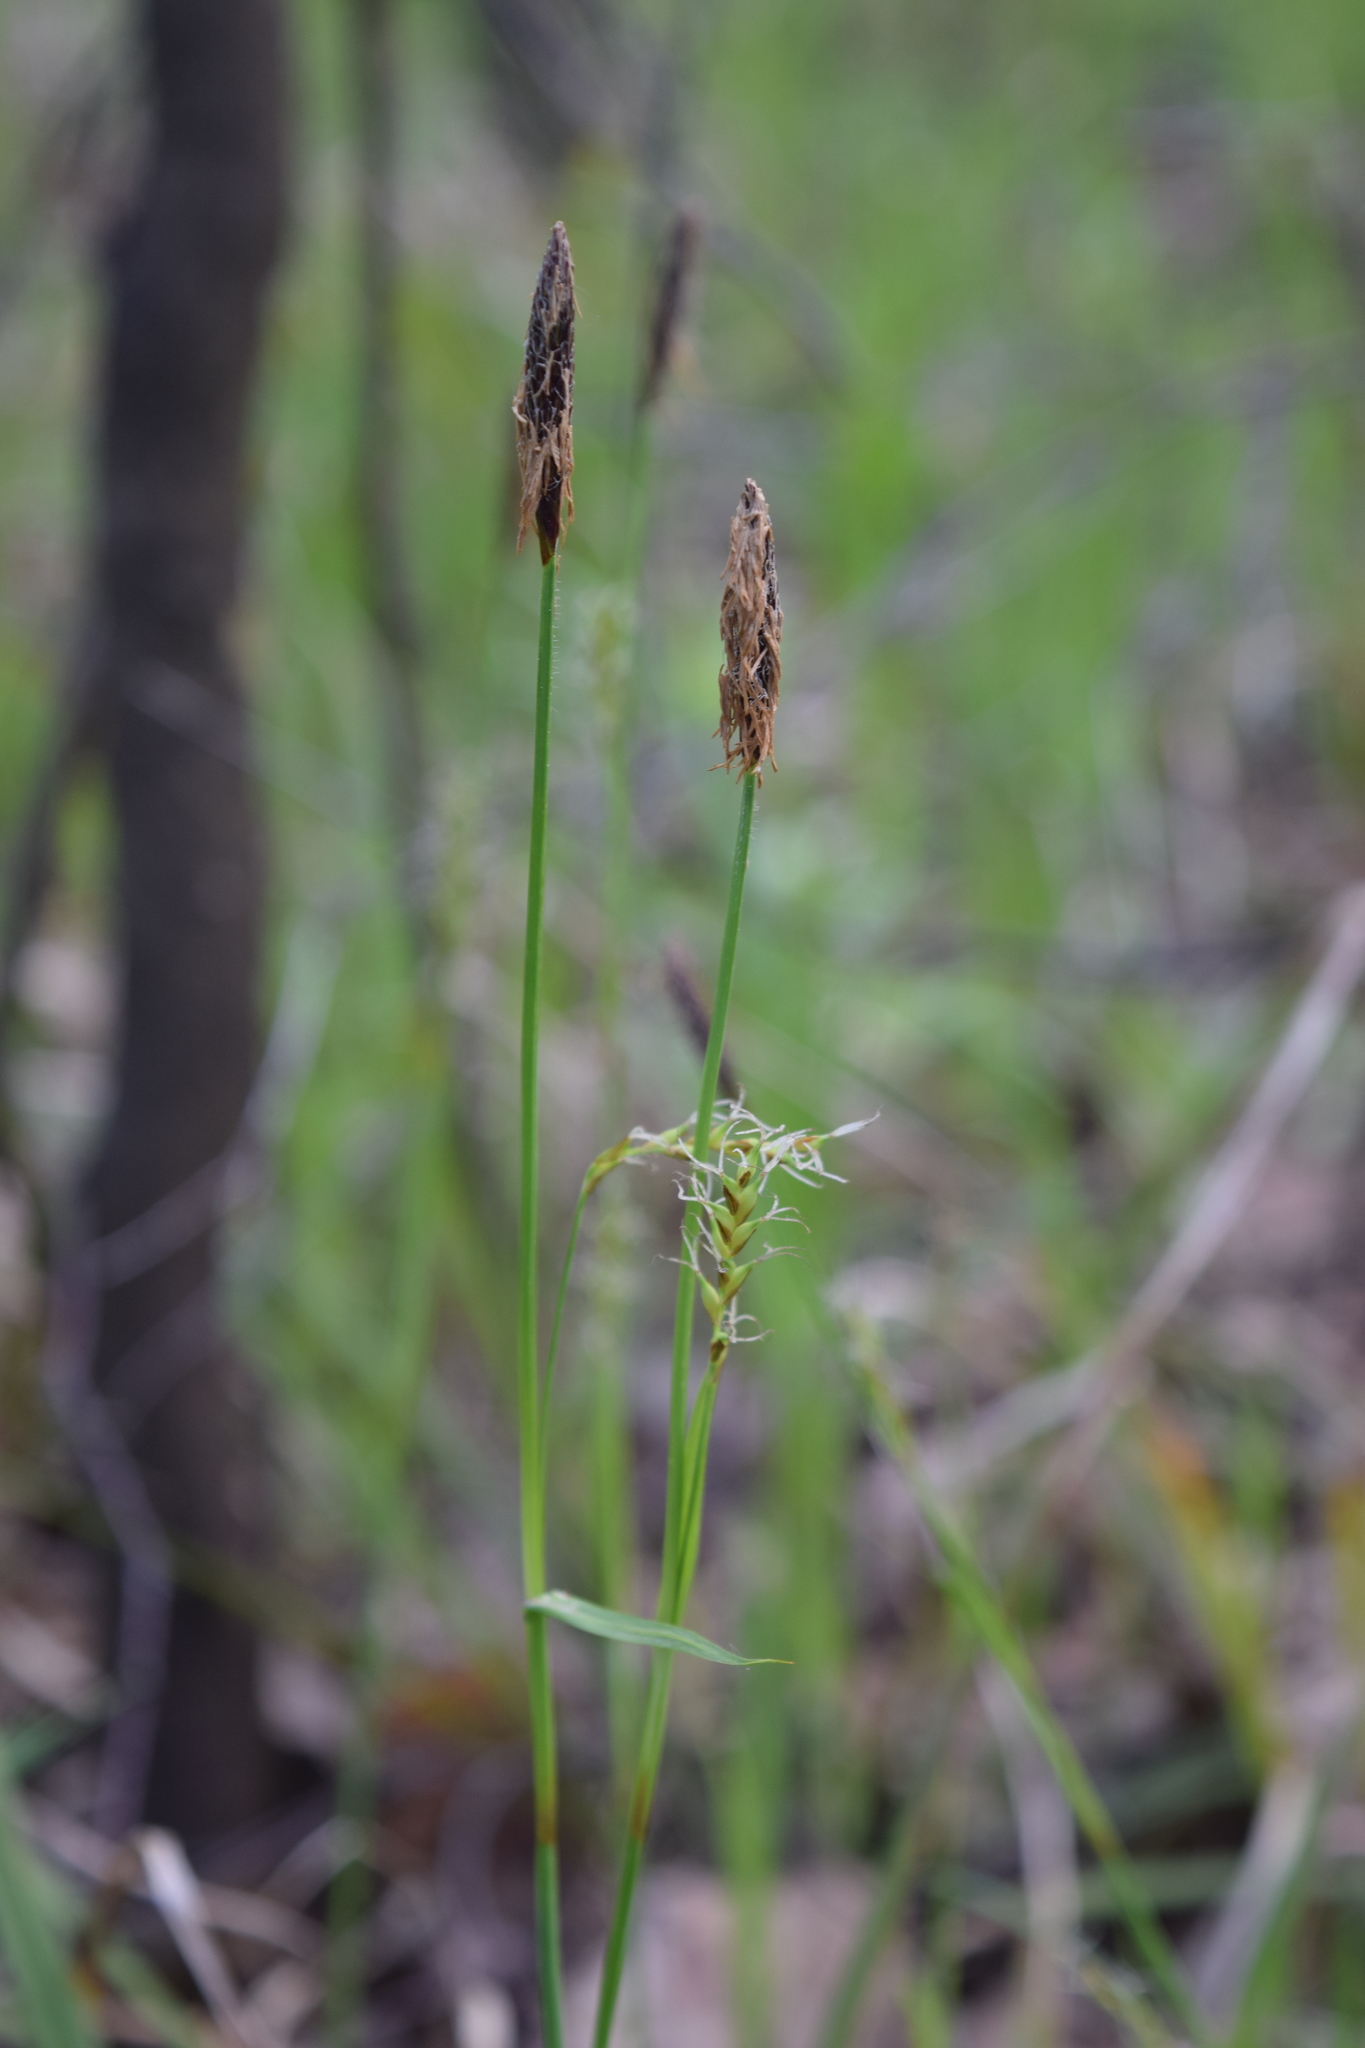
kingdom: Plantae
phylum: Tracheophyta
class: Liliopsida
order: Poales
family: Cyperaceae
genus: Carex
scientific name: Carex pilosa
